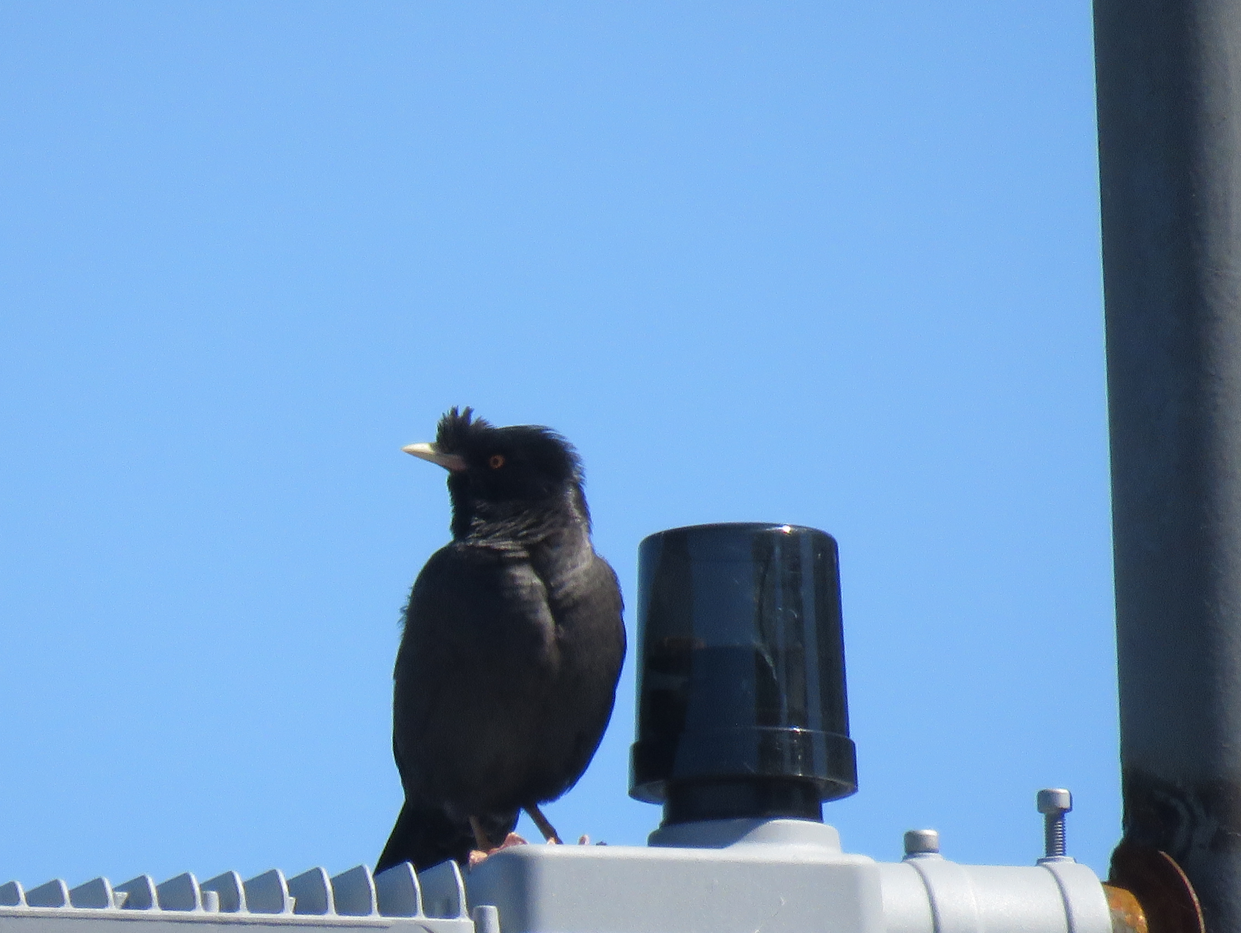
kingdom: Animalia
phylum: Chordata
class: Aves
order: Passeriformes
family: Sturnidae
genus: Acridotheres
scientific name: Acridotheres cristatellus
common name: Crested myna
